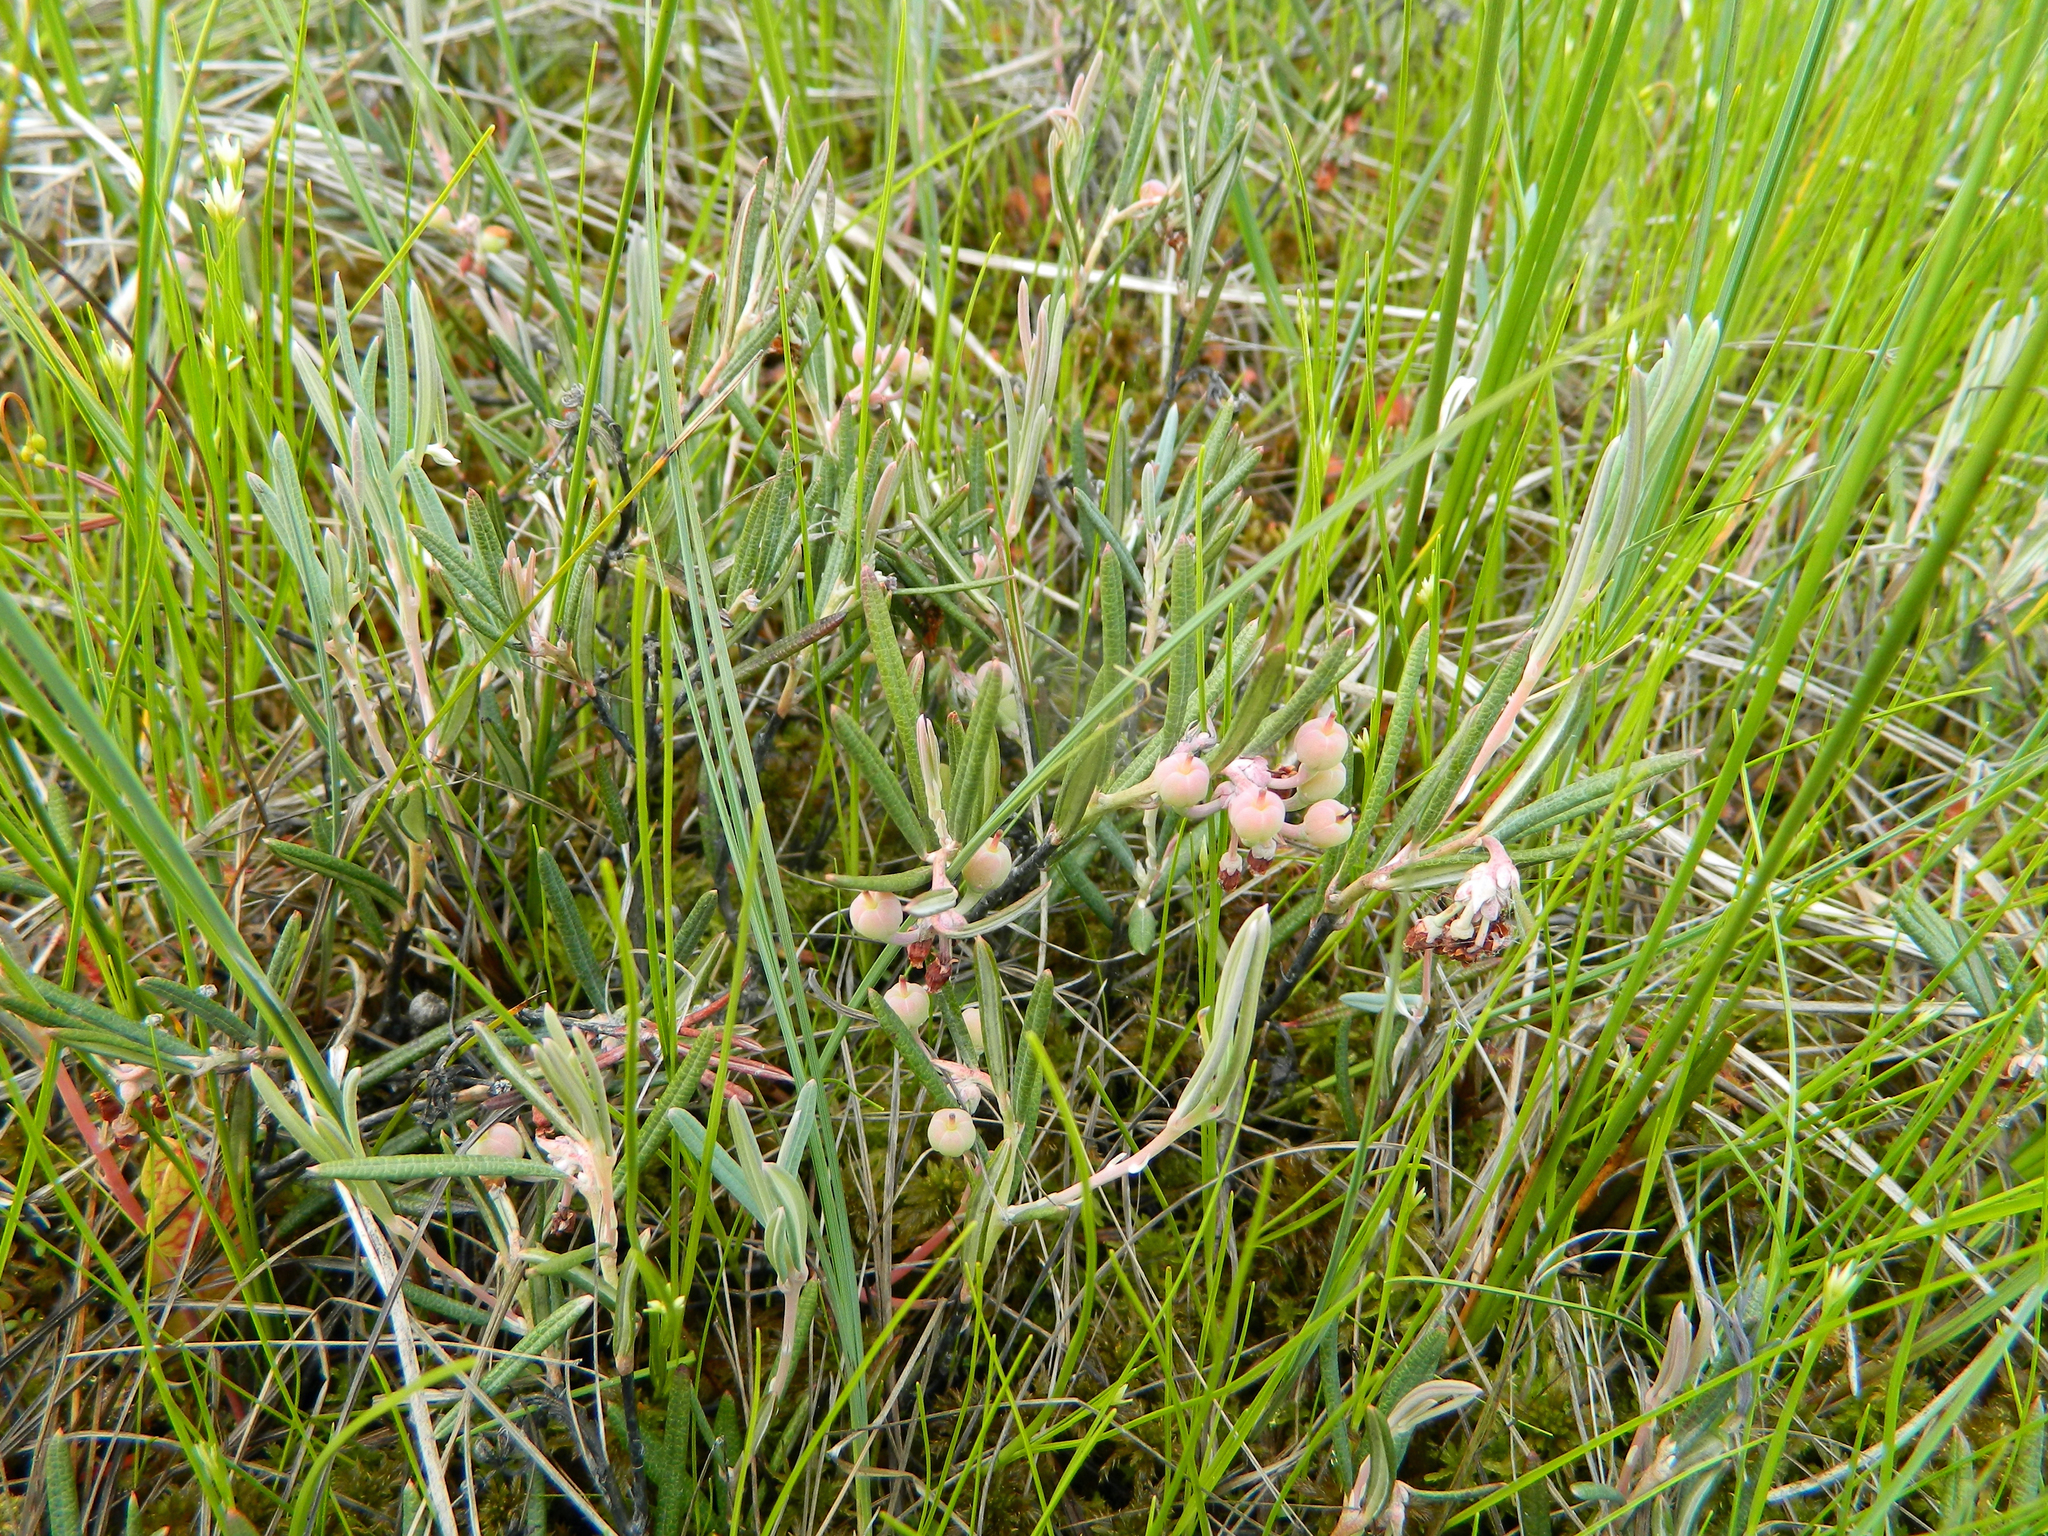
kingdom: Plantae
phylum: Tracheophyta
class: Magnoliopsida
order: Ericales
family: Ericaceae
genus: Andromeda
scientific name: Andromeda polifolia
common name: Bog-rosemary
